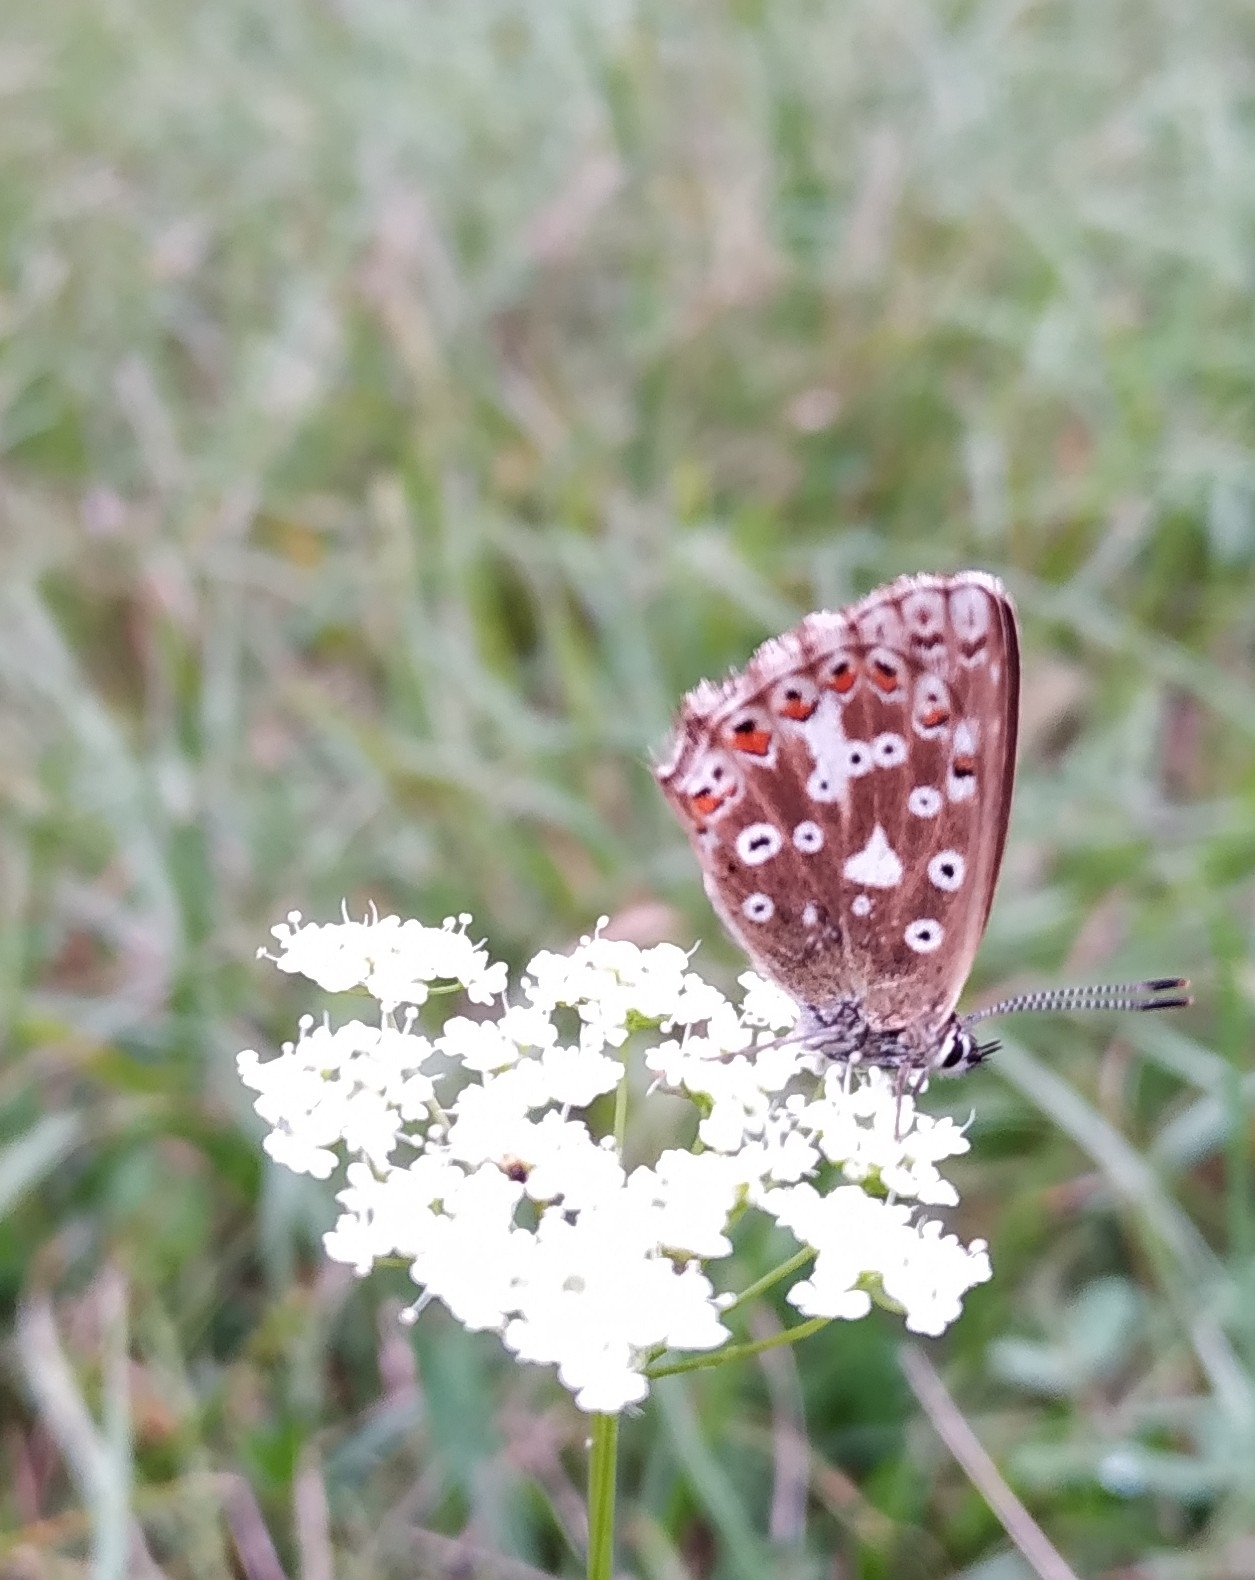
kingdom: Animalia
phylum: Arthropoda
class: Insecta
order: Lepidoptera
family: Lycaenidae
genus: Lysandra
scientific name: Lysandra coridon
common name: Chalkhill blue
